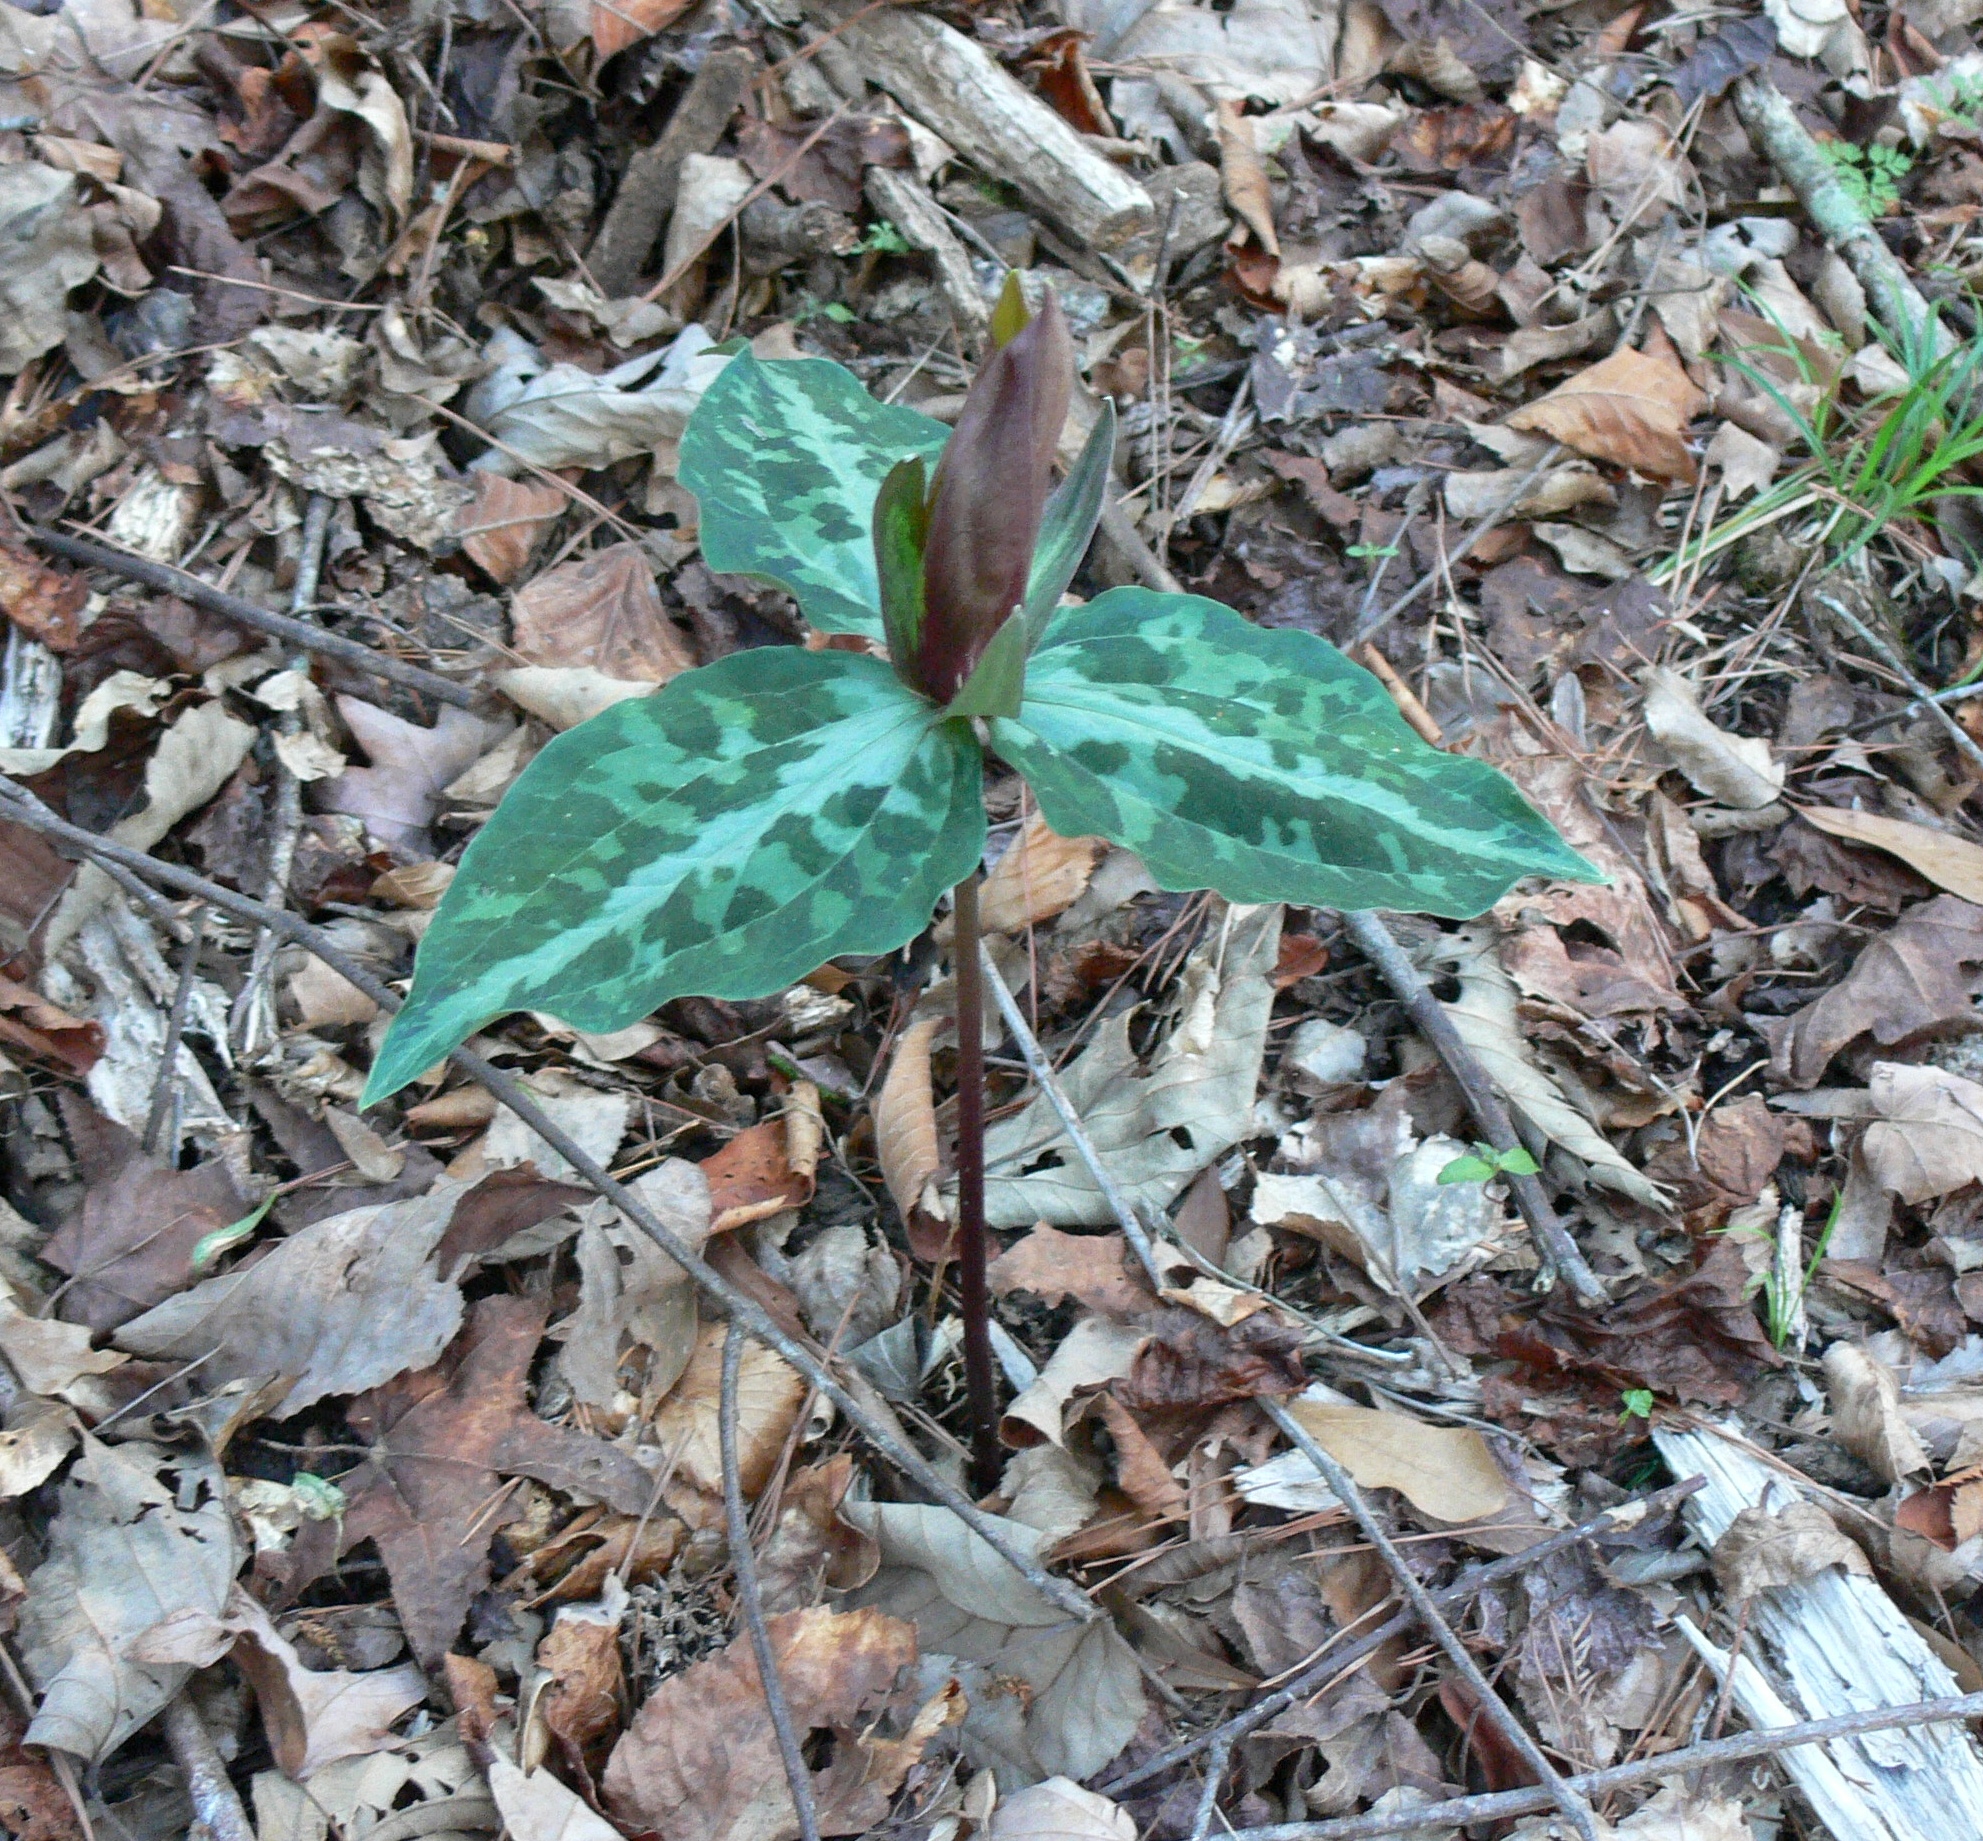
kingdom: Plantae
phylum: Tracheophyta
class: Liliopsida
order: Liliales
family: Melanthiaceae
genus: Trillium
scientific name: Trillium decipiens
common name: Chattahoochee river trillium
